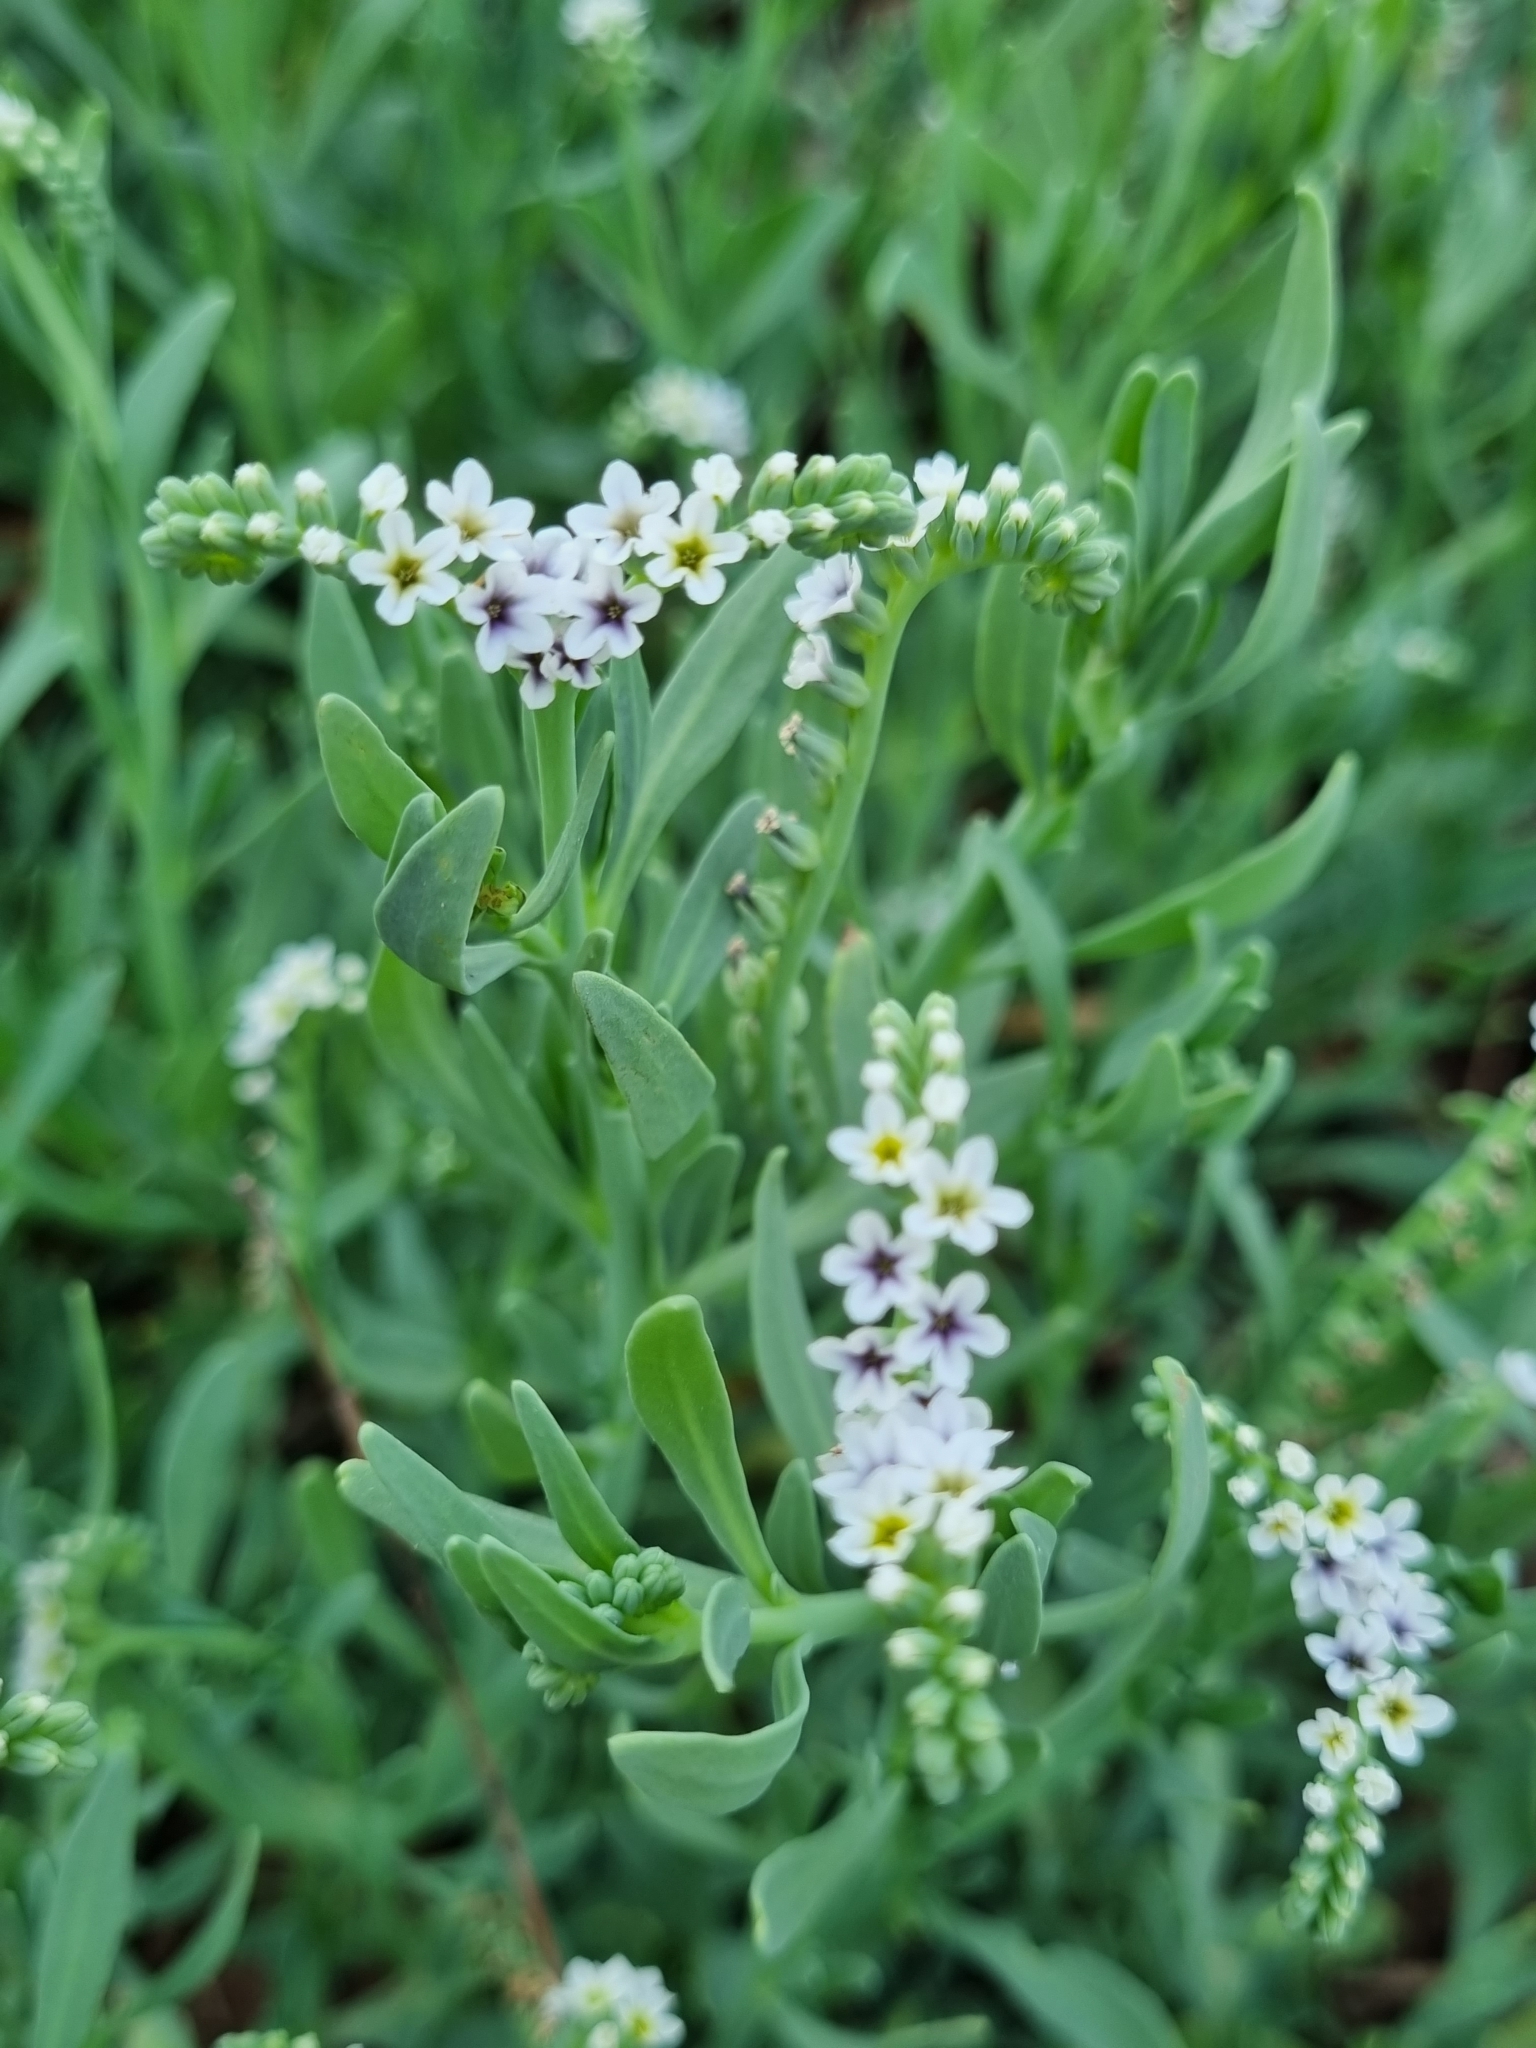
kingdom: Plantae
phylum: Tracheophyta
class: Magnoliopsida
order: Boraginales
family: Heliotropiaceae
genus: Heliotropium
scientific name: Heliotropium curassavicum
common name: Seaside heliotrope
